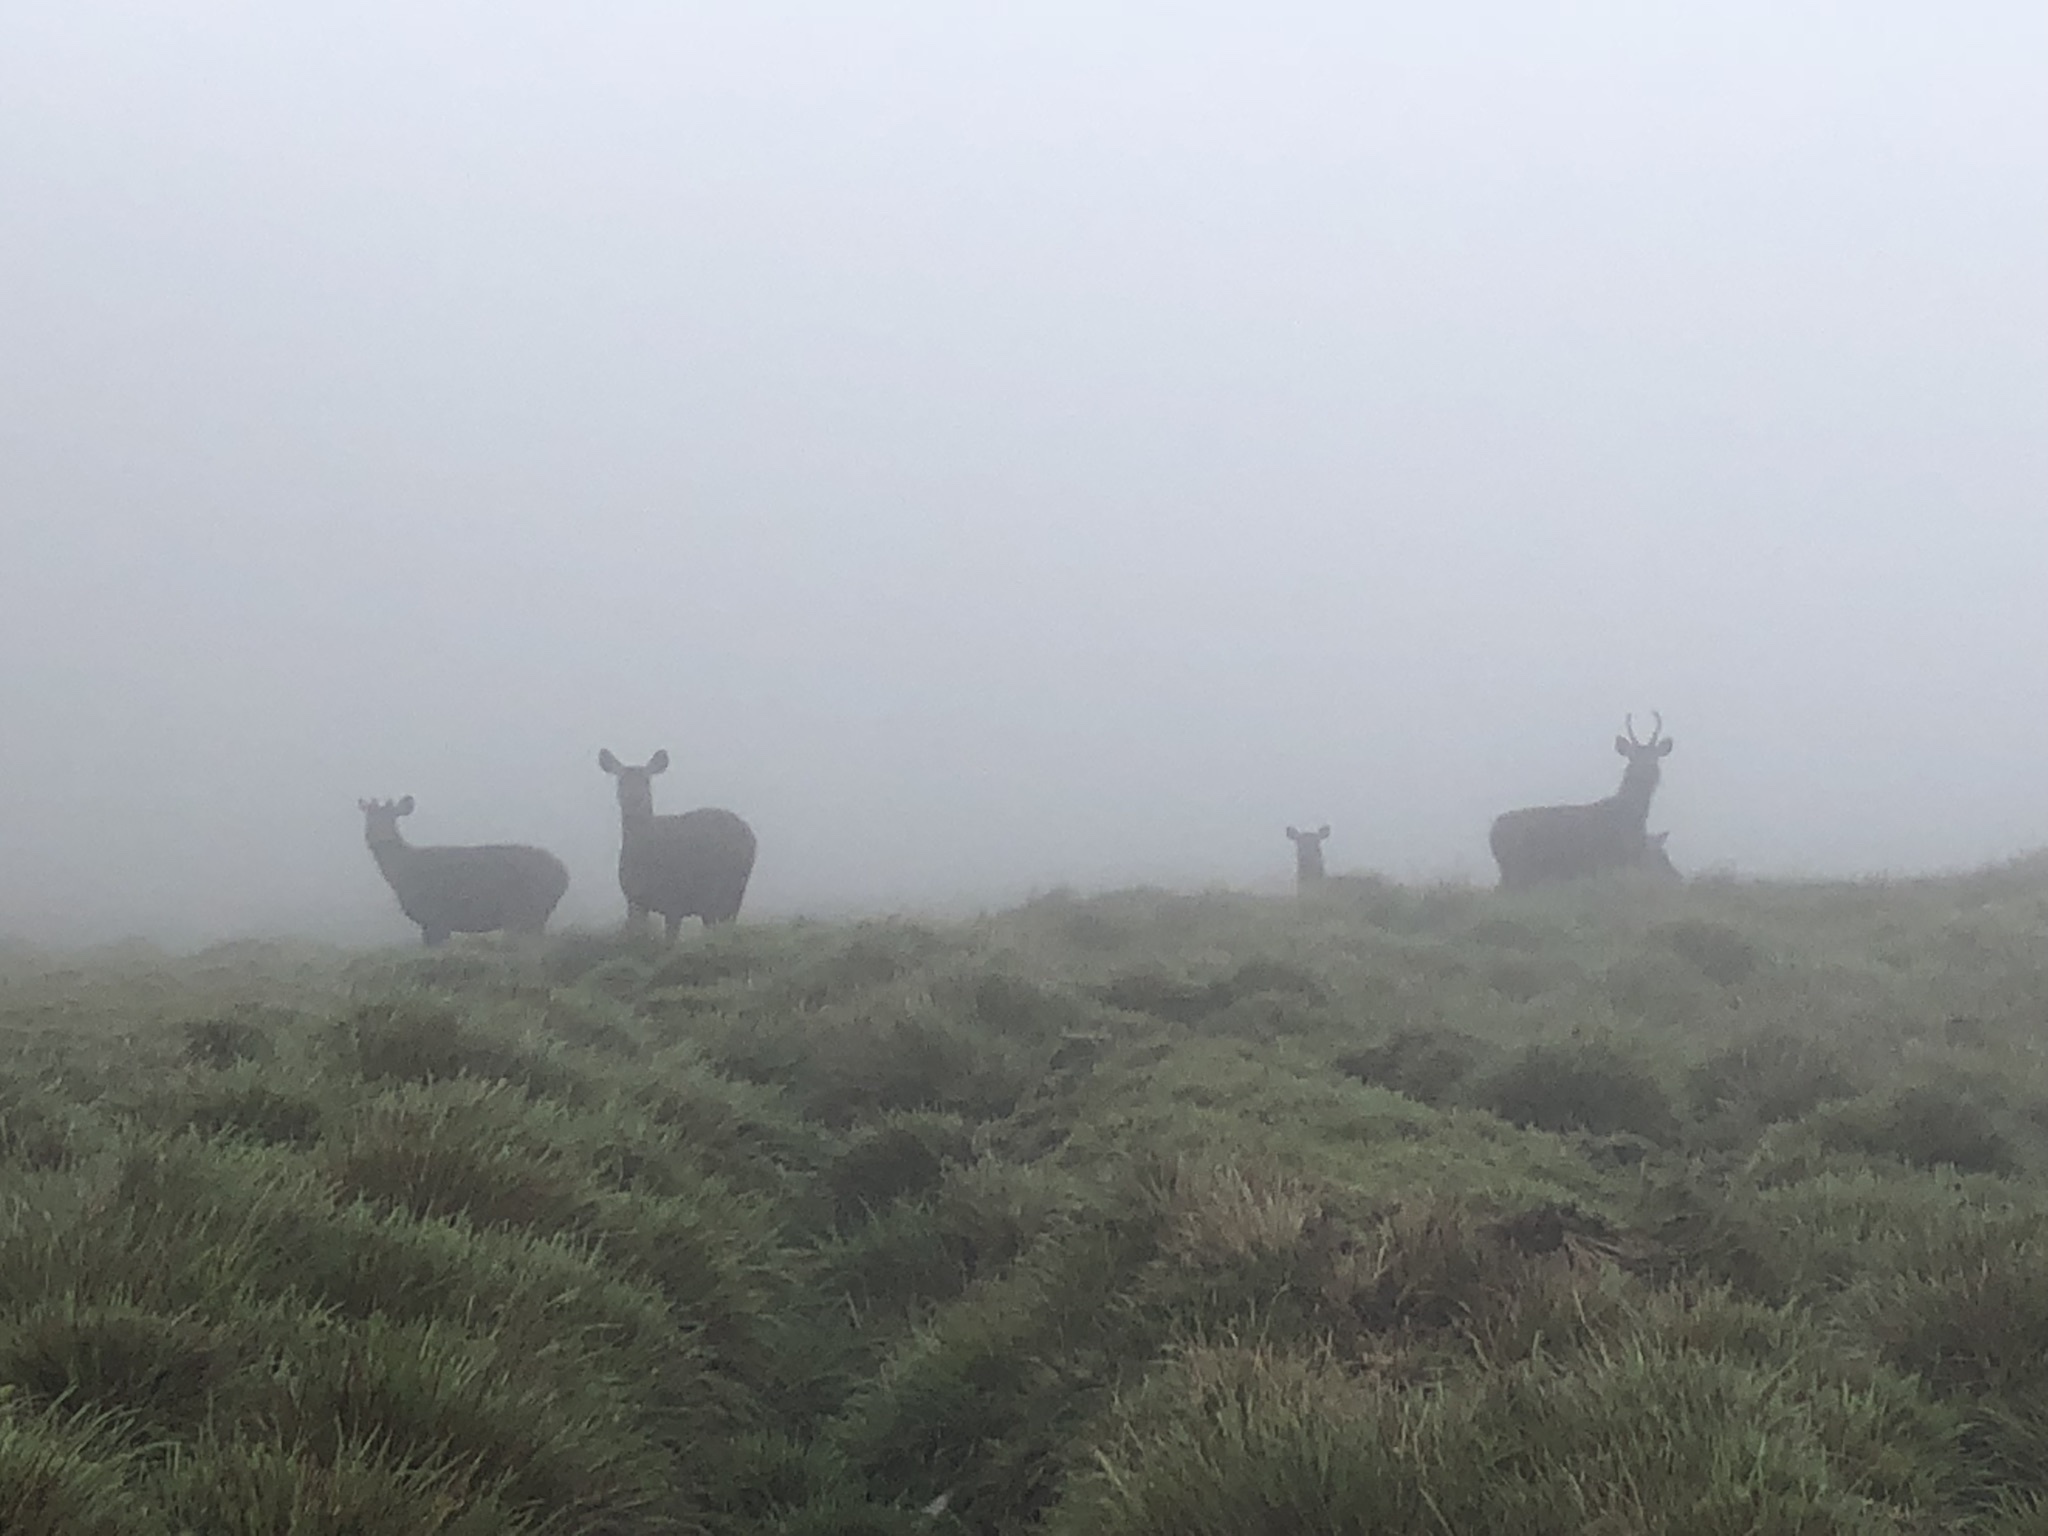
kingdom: Animalia
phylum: Chordata
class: Mammalia
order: Artiodactyla
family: Cervidae
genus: Rusa
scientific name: Rusa unicolor
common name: Sambar
